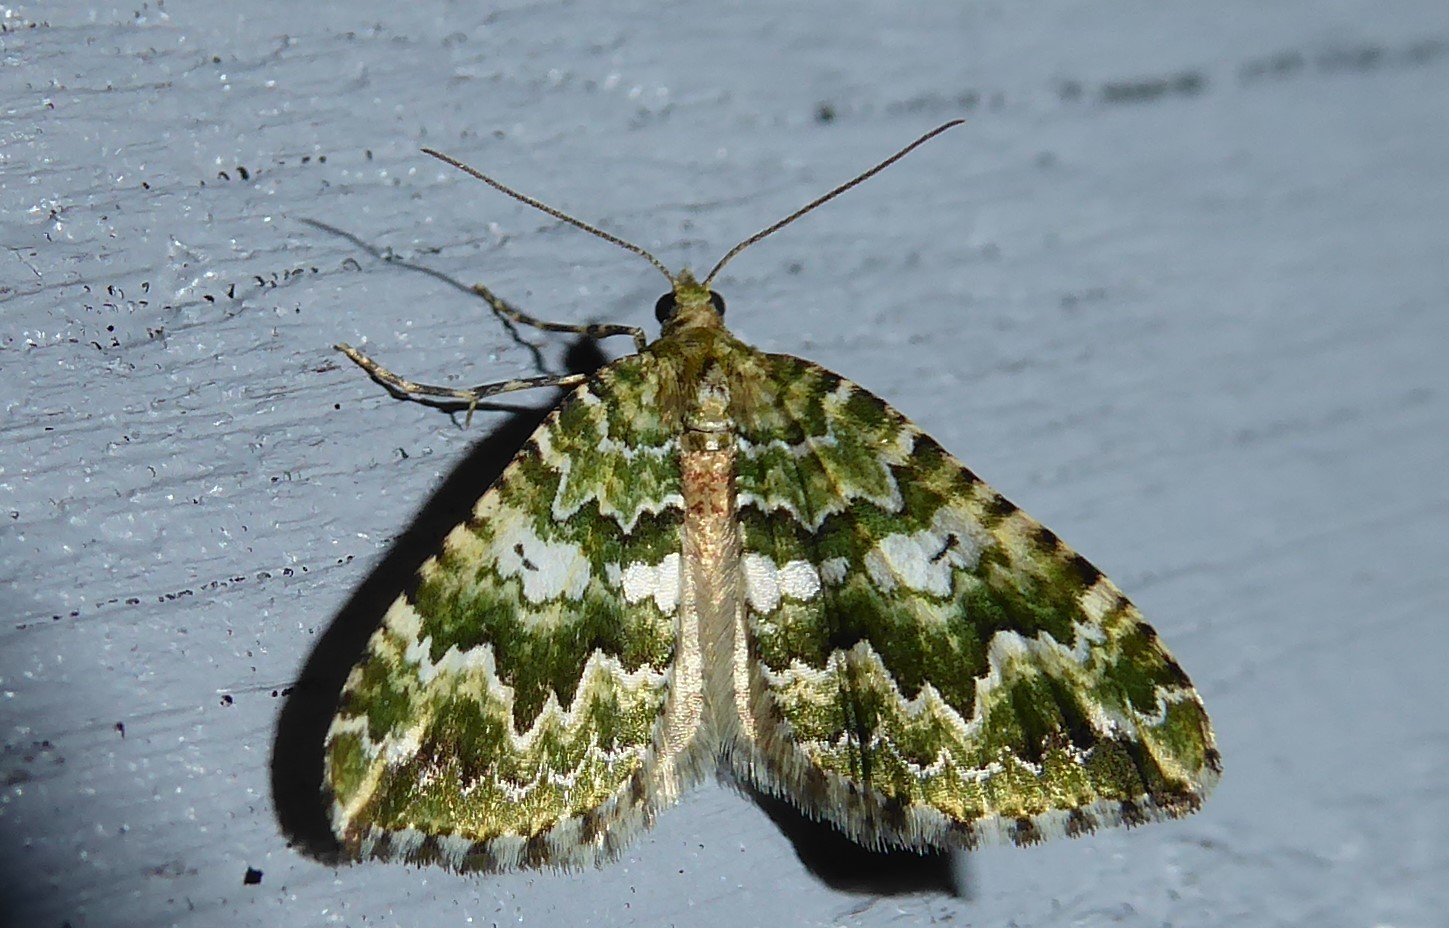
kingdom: Animalia
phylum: Arthropoda
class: Insecta
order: Lepidoptera
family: Geometridae
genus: Asaphodes
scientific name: Asaphodes beata
